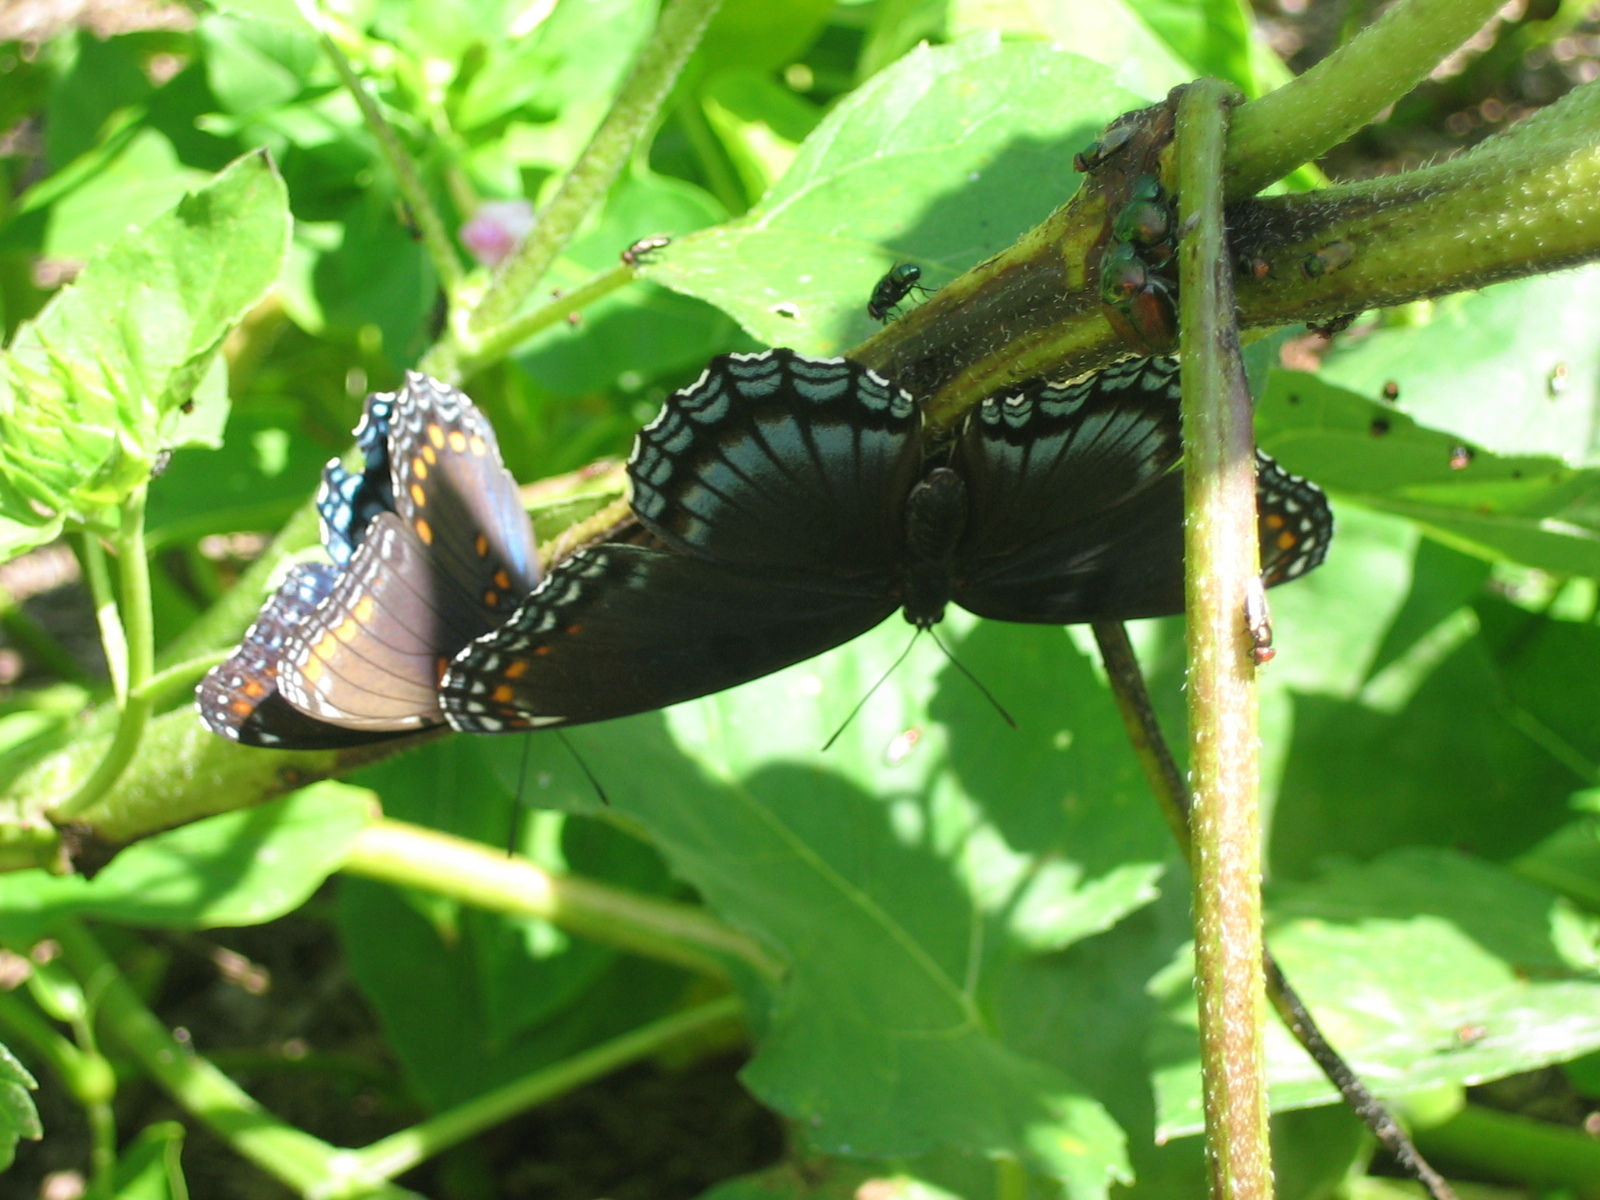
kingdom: Animalia
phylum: Arthropoda
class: Insecta
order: Lepidoptera
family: Nymphalidae
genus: Limenitis
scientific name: Limenitis astyanax
